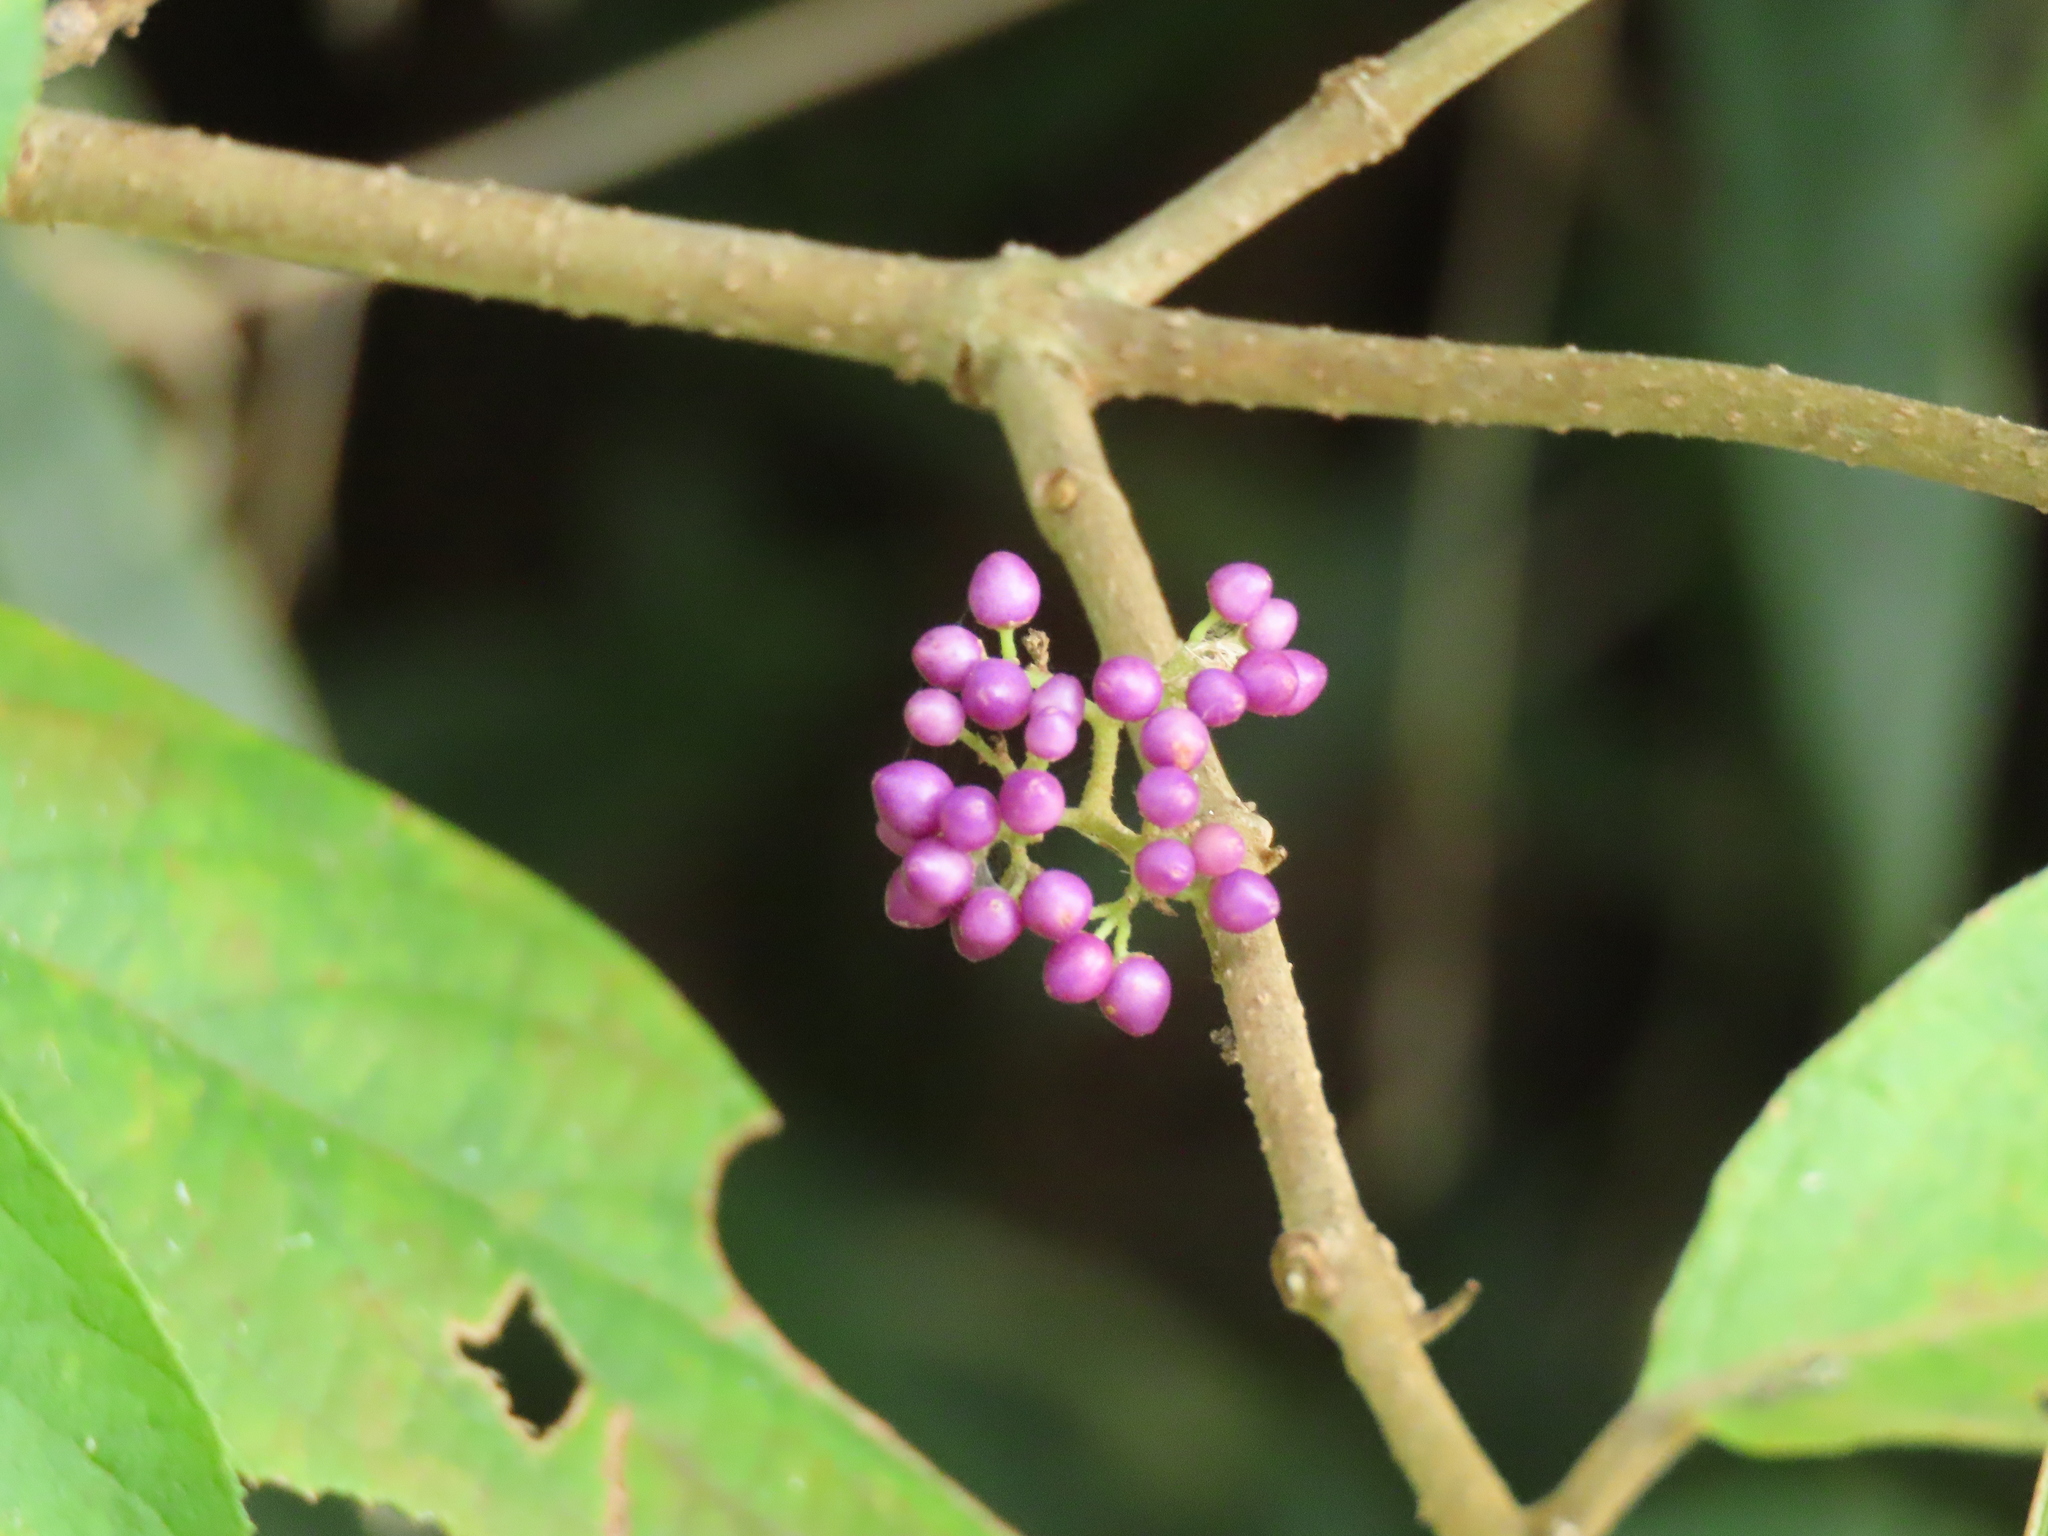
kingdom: Plantae
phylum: Tracheophyta
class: Magnoliopsida
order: Lamiales
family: Lamiaceae
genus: Callicarpa
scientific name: Callicarpa pedunculata
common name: Velvetleaf
